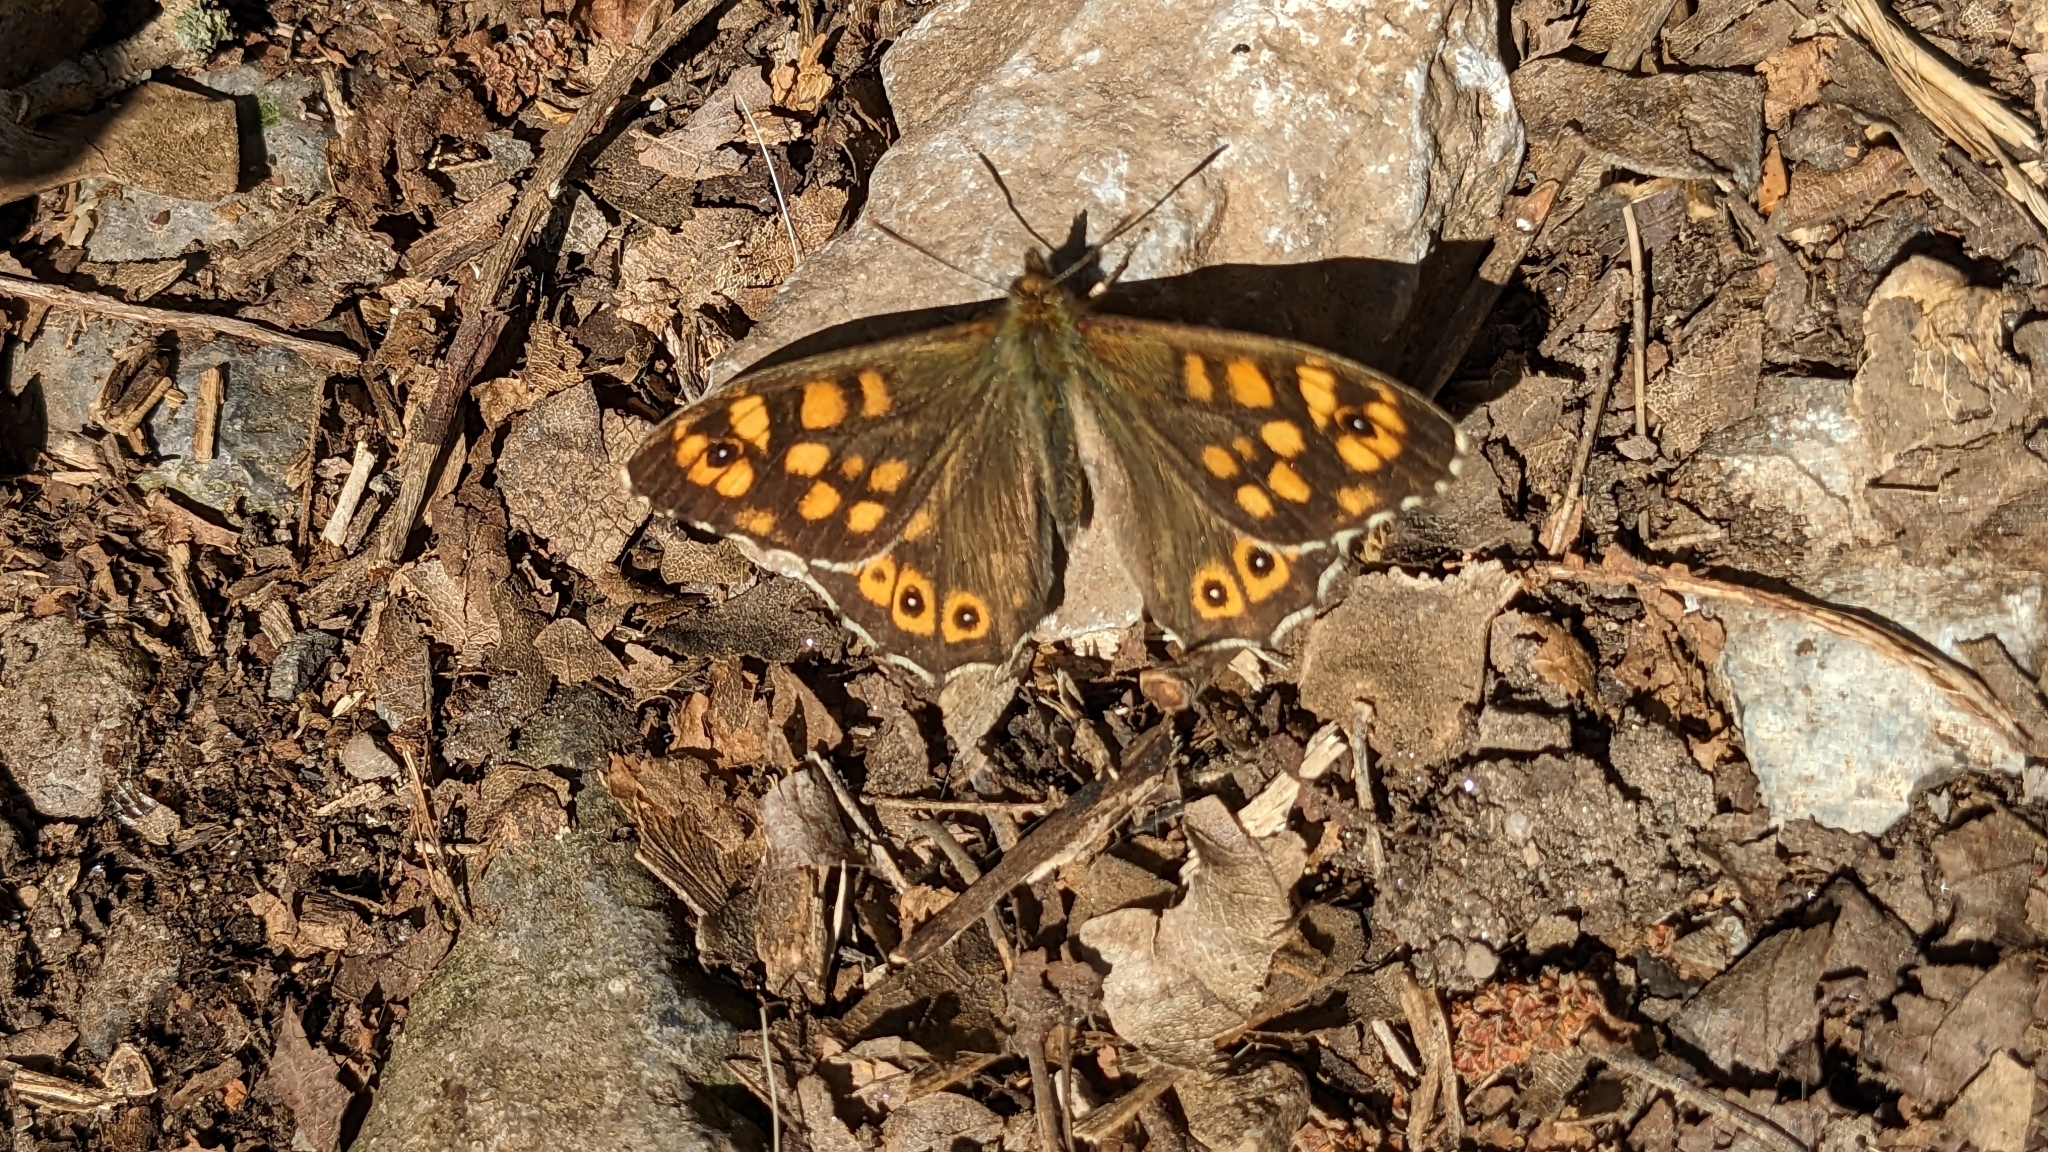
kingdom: Animalia
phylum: Arthropoda
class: Insecta
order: Lepidoptera
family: Nymphalidae
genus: Pararge
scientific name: Pararge aegeria
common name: Speckled wood
